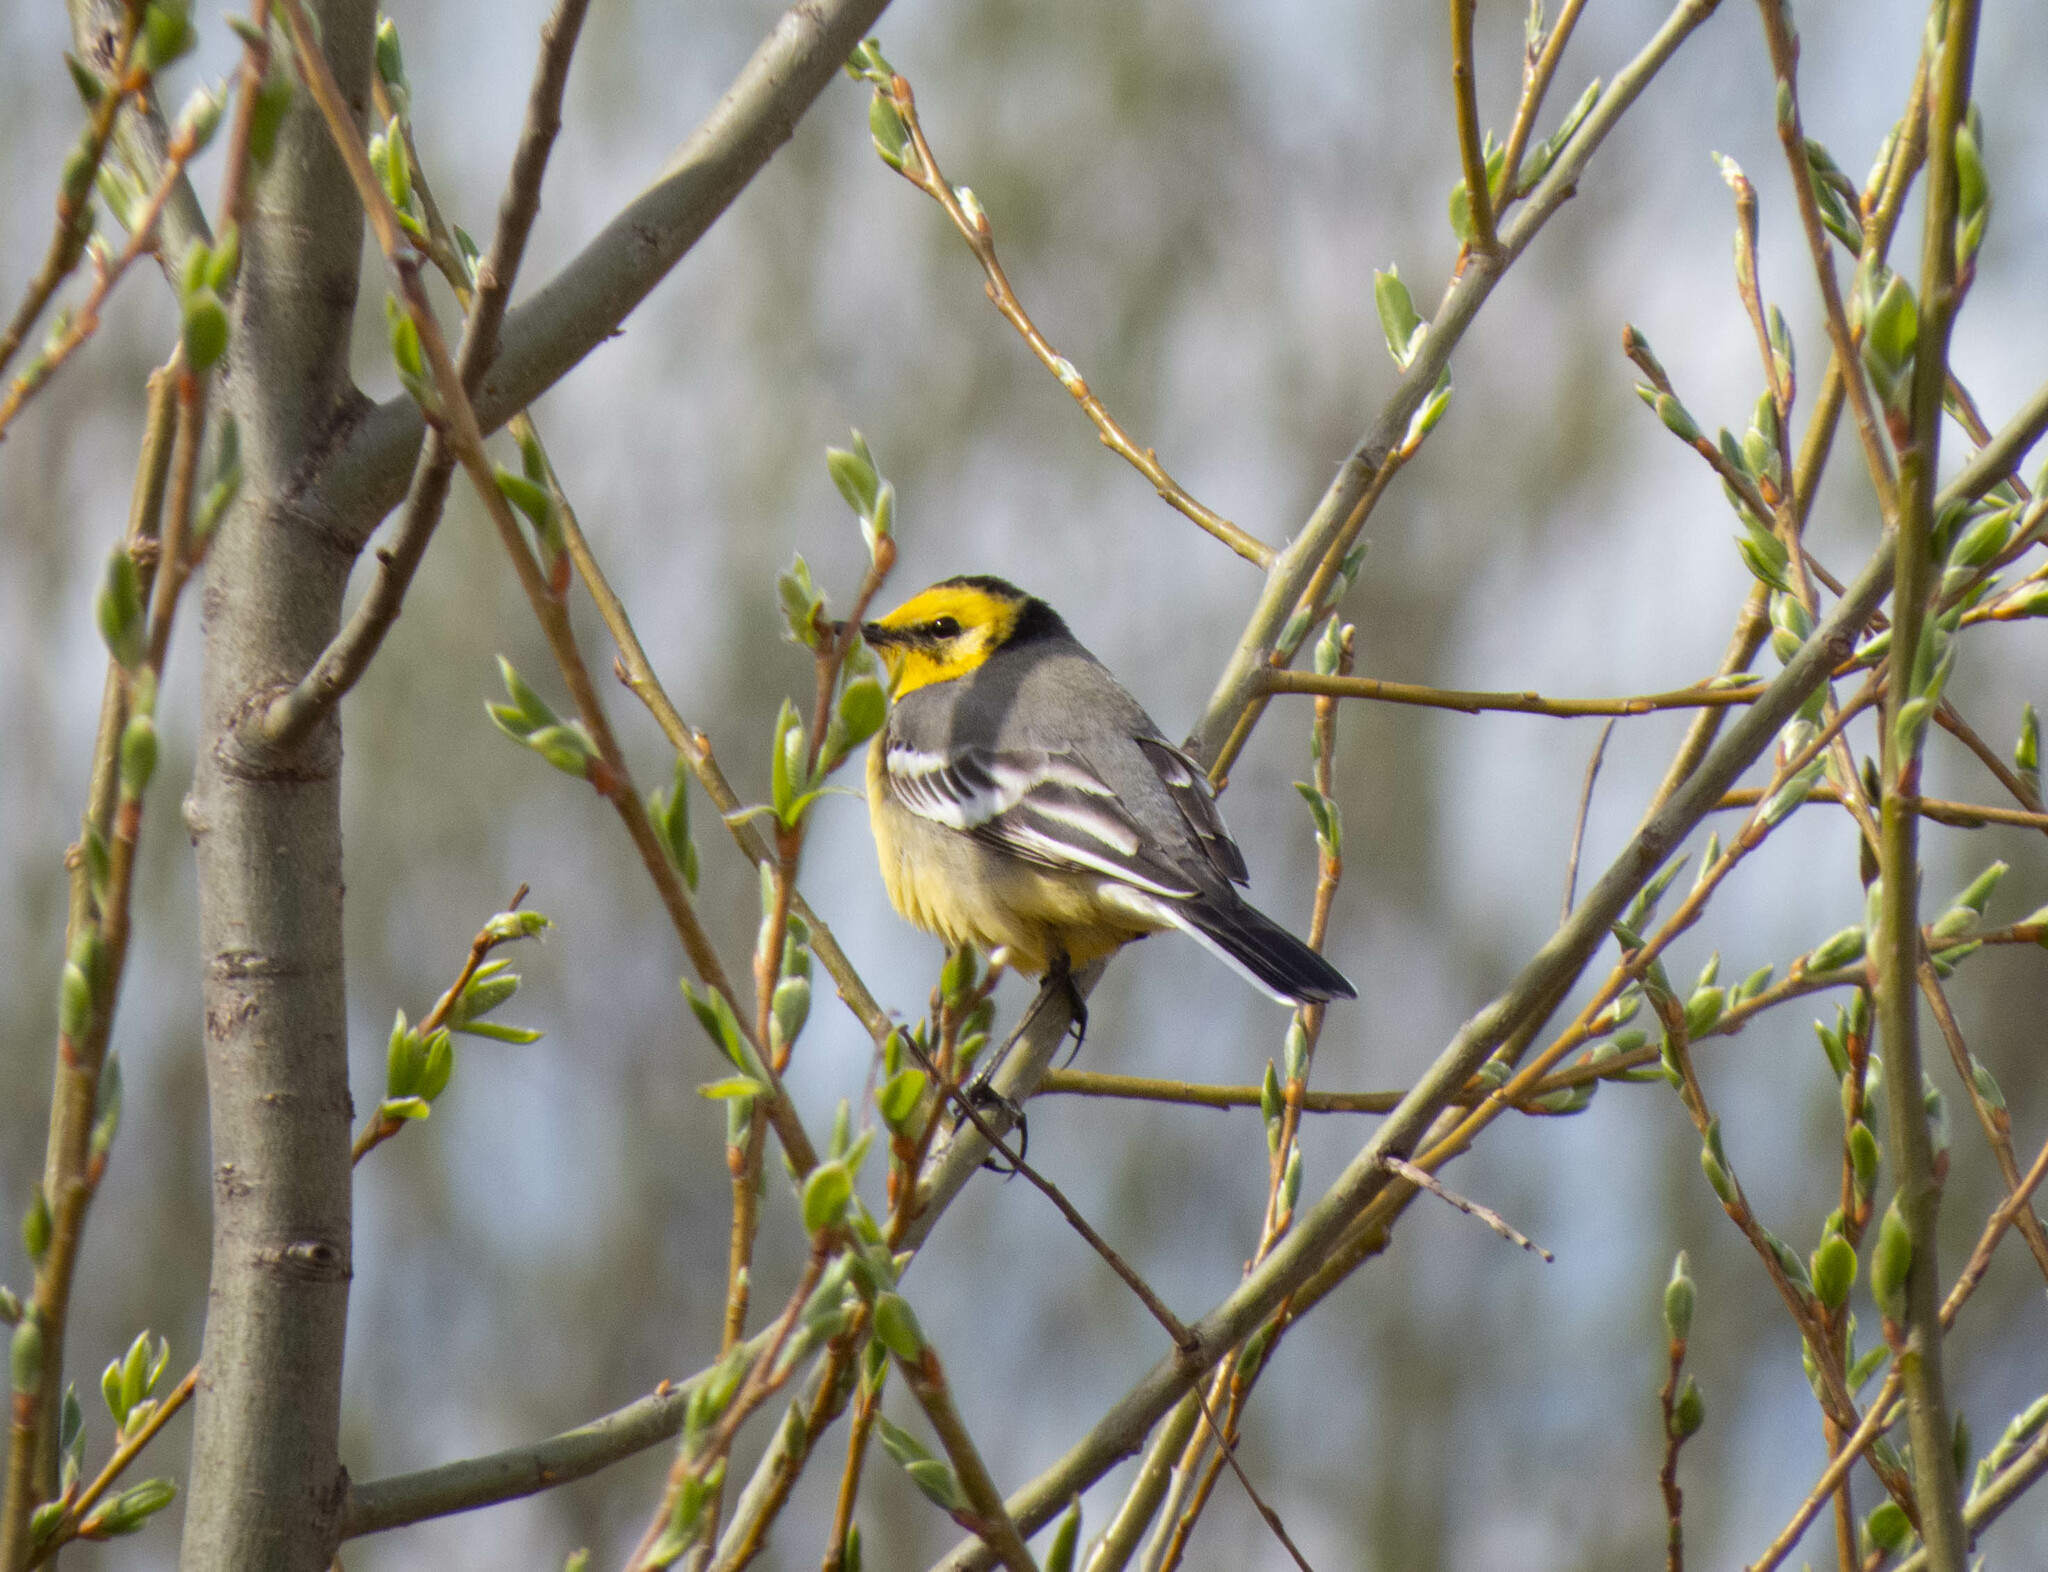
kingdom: Animalia
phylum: Chordata
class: Aves
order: Passeriformes
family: Motacillidae
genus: Motacilla
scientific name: Motacilla citreola
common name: Citrine wagtail
